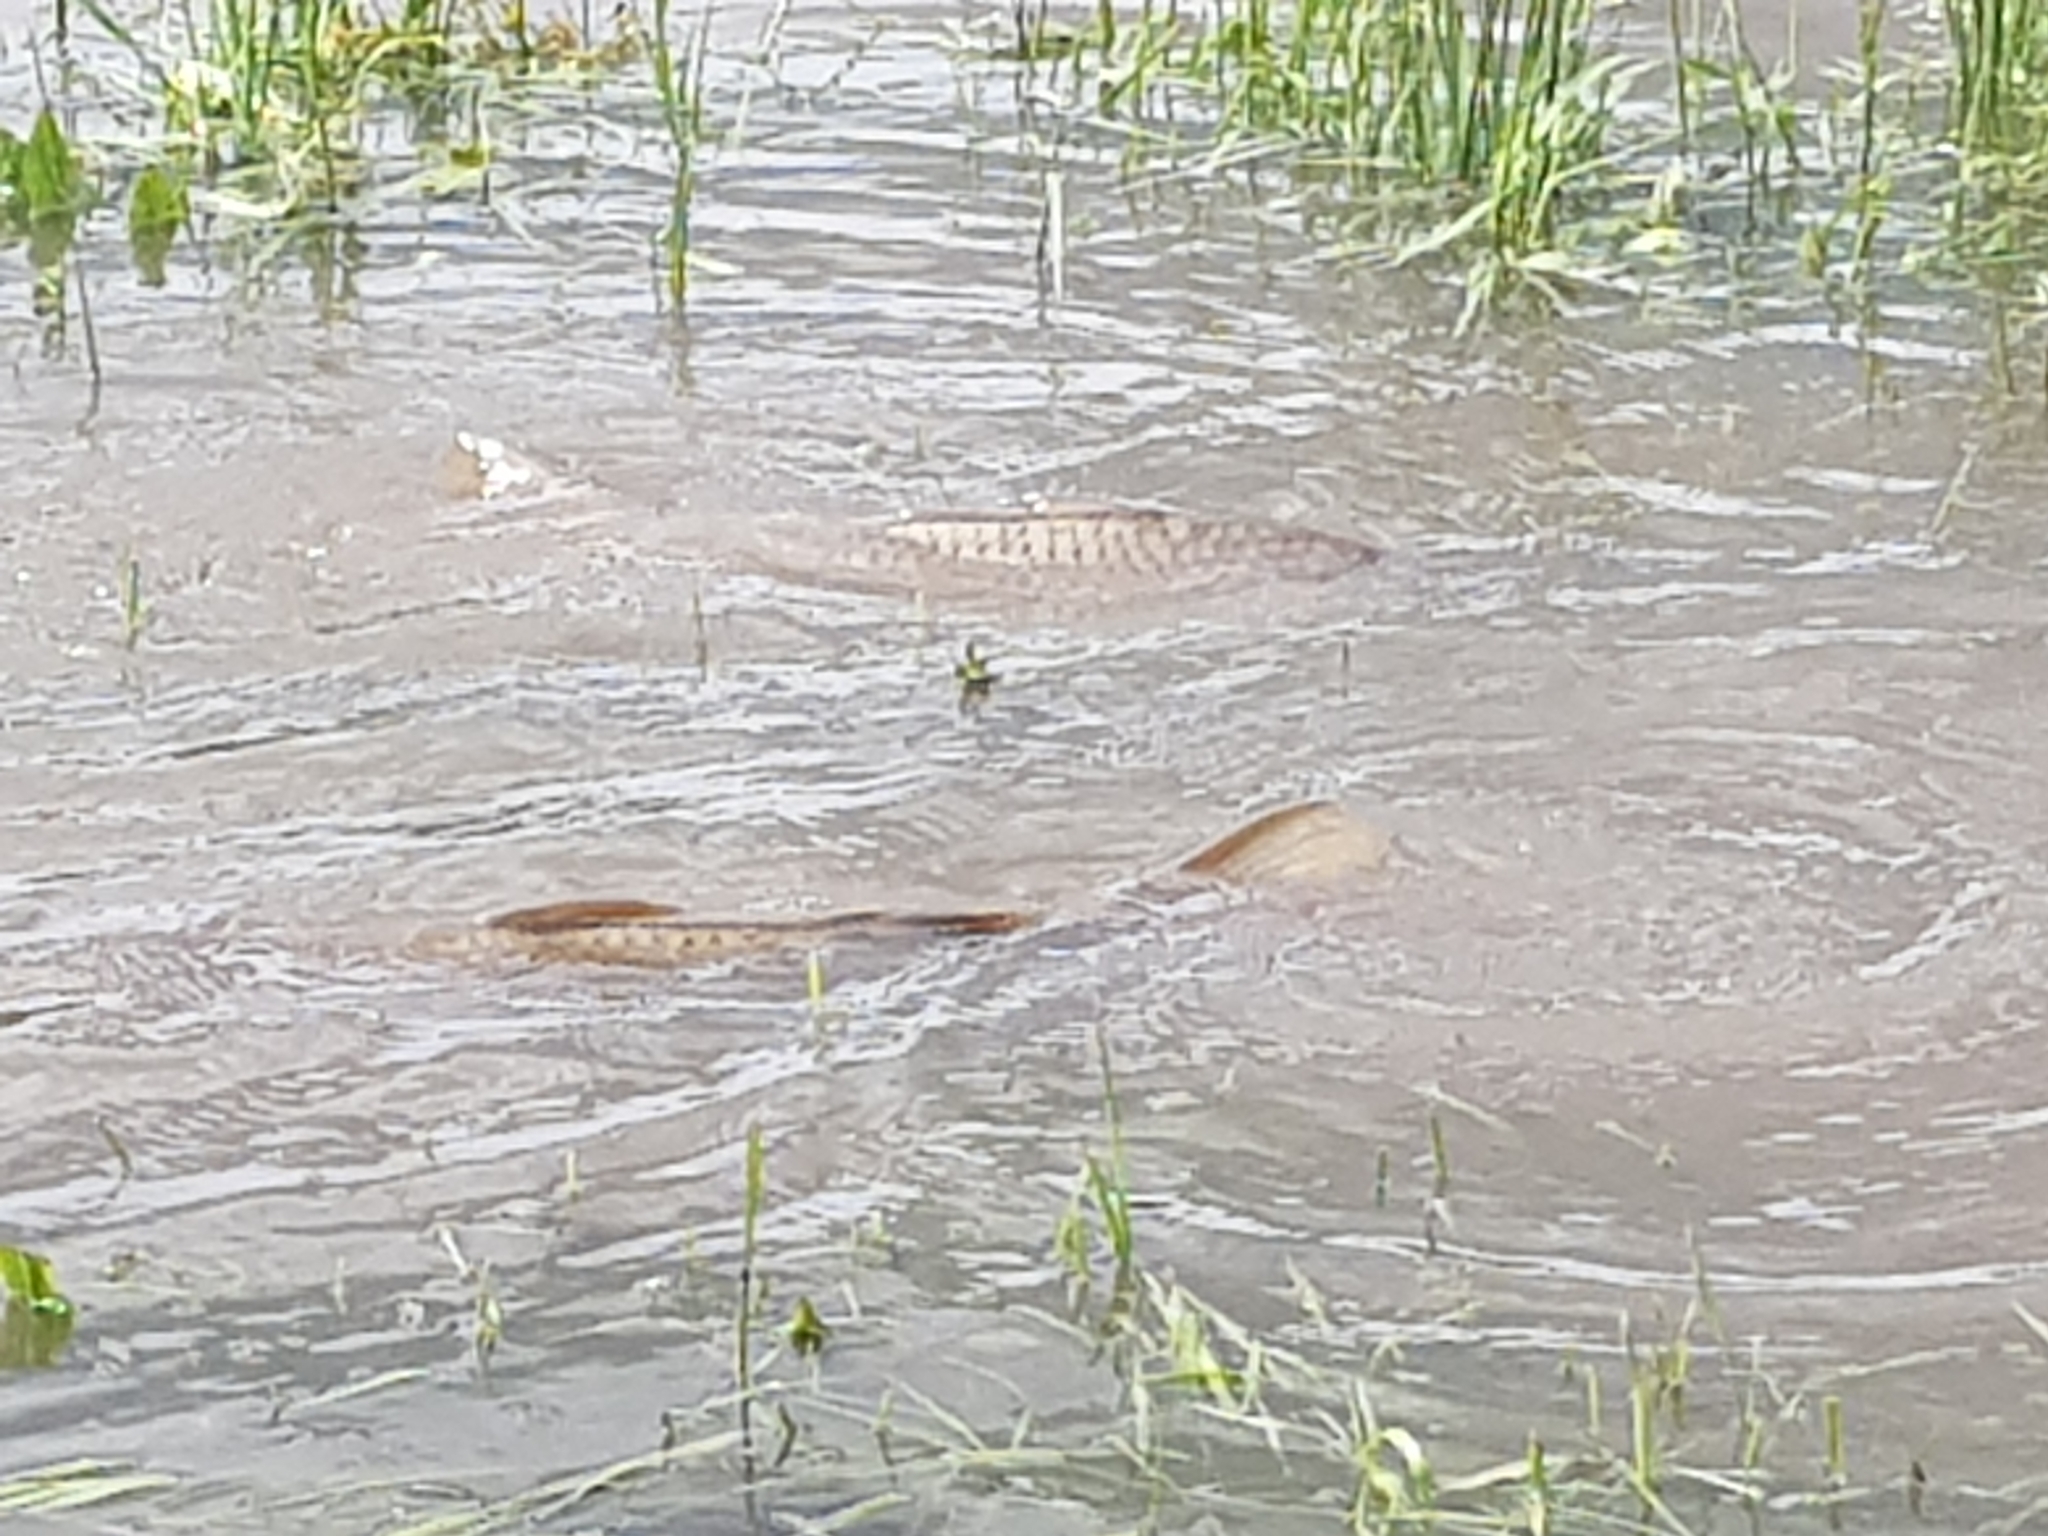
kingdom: Animalia
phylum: Chordata
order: Cypriniformes
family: Cyprinidae
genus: Cyprinus
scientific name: Cyprinus carpio
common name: Common carp
